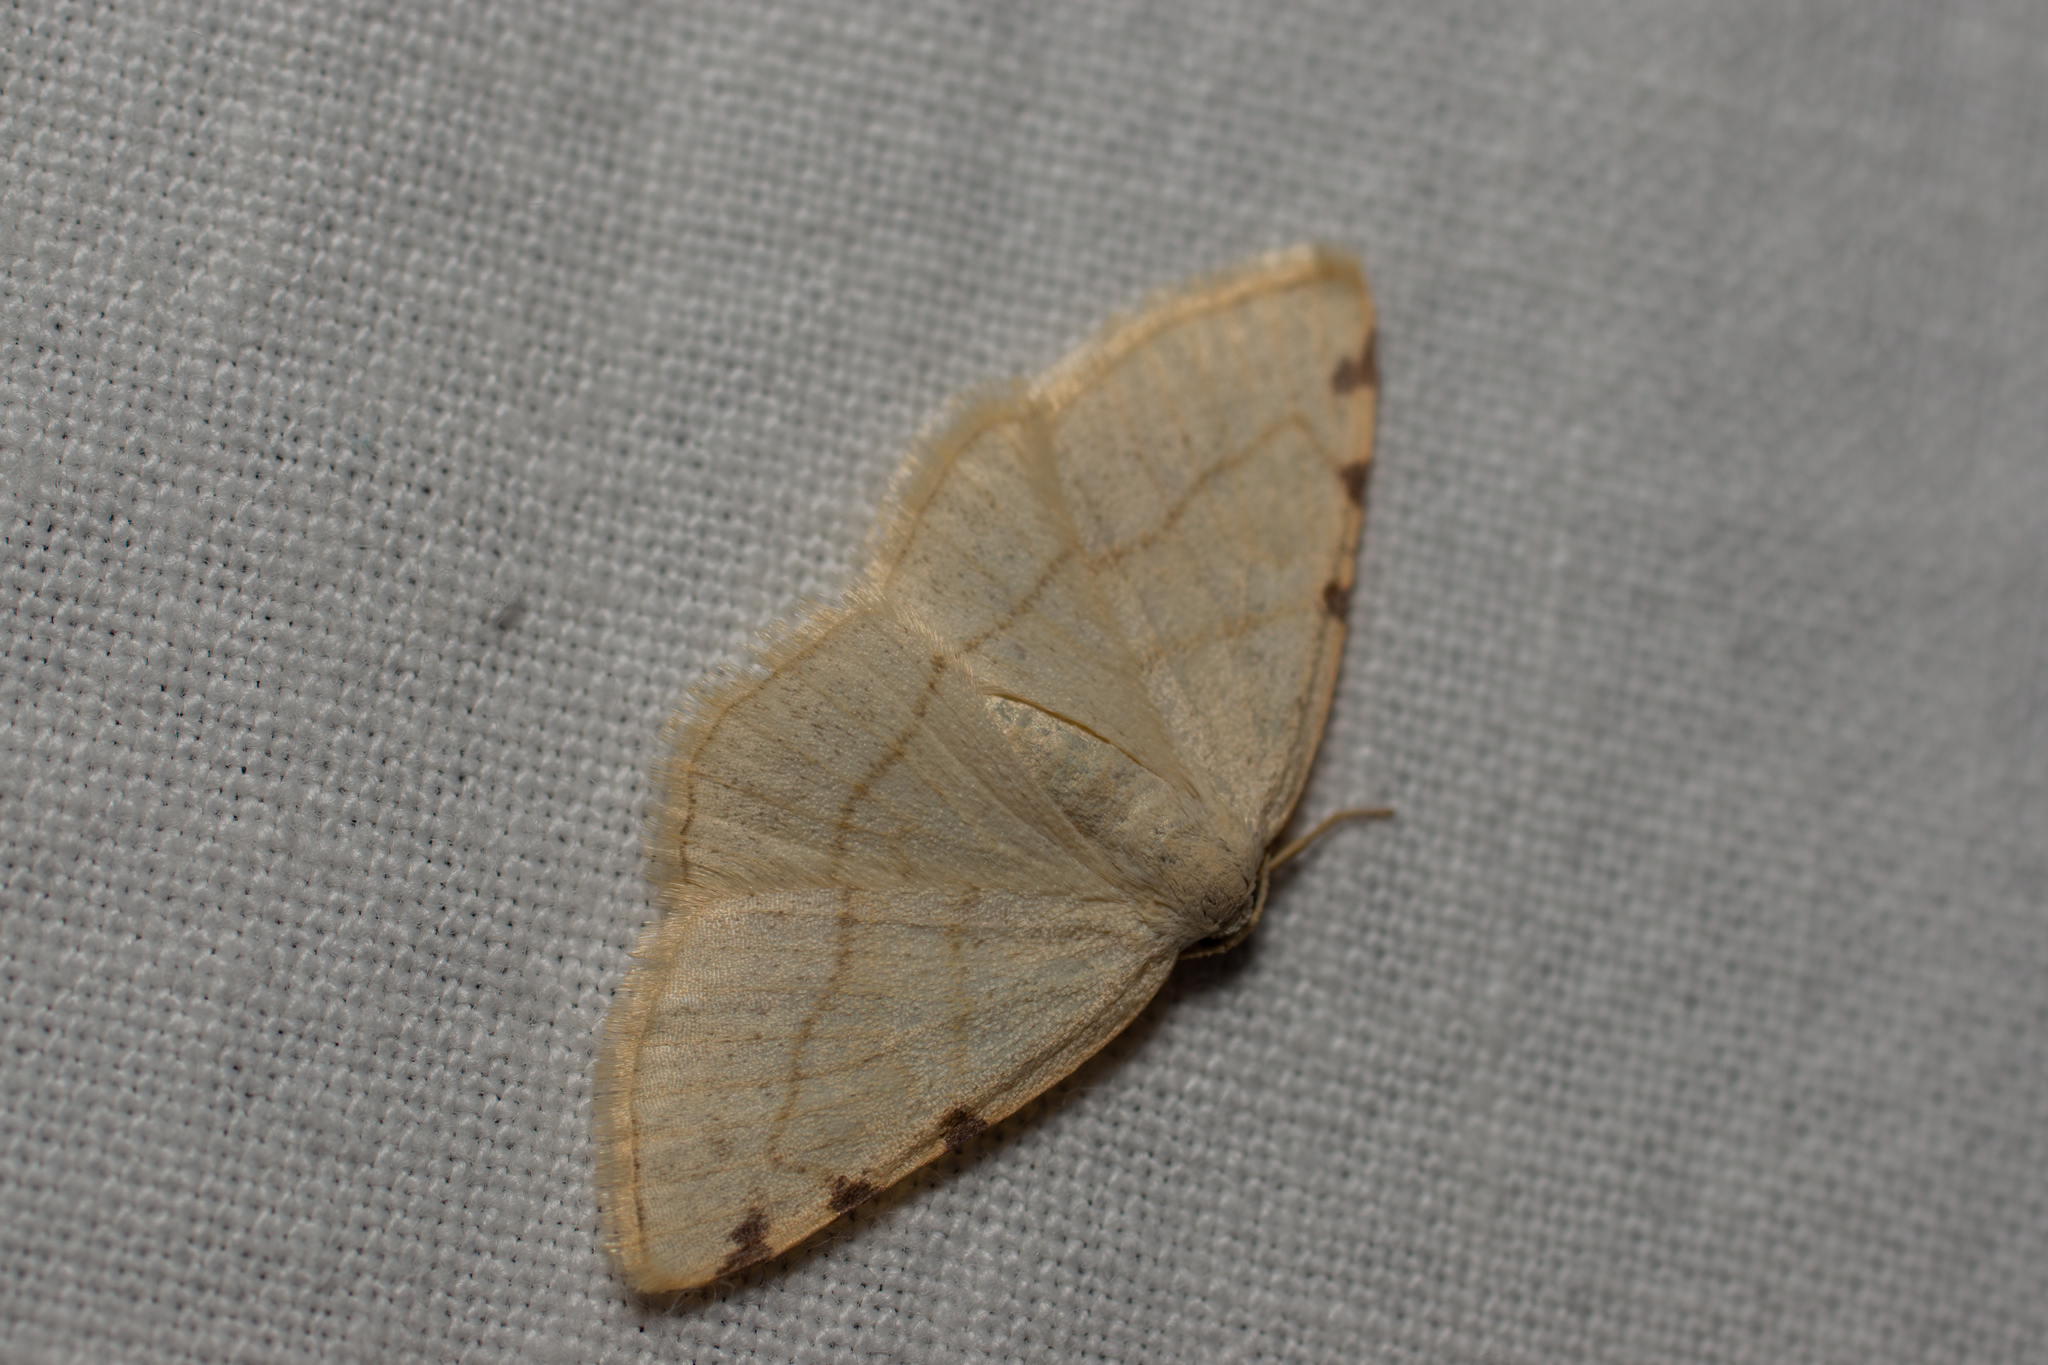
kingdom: Animalia
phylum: Arthropoda
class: Insecta
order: Lepidoptera
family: Geometridae
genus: Stegania
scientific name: Stegania trimaculata
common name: Dorset cream wave
